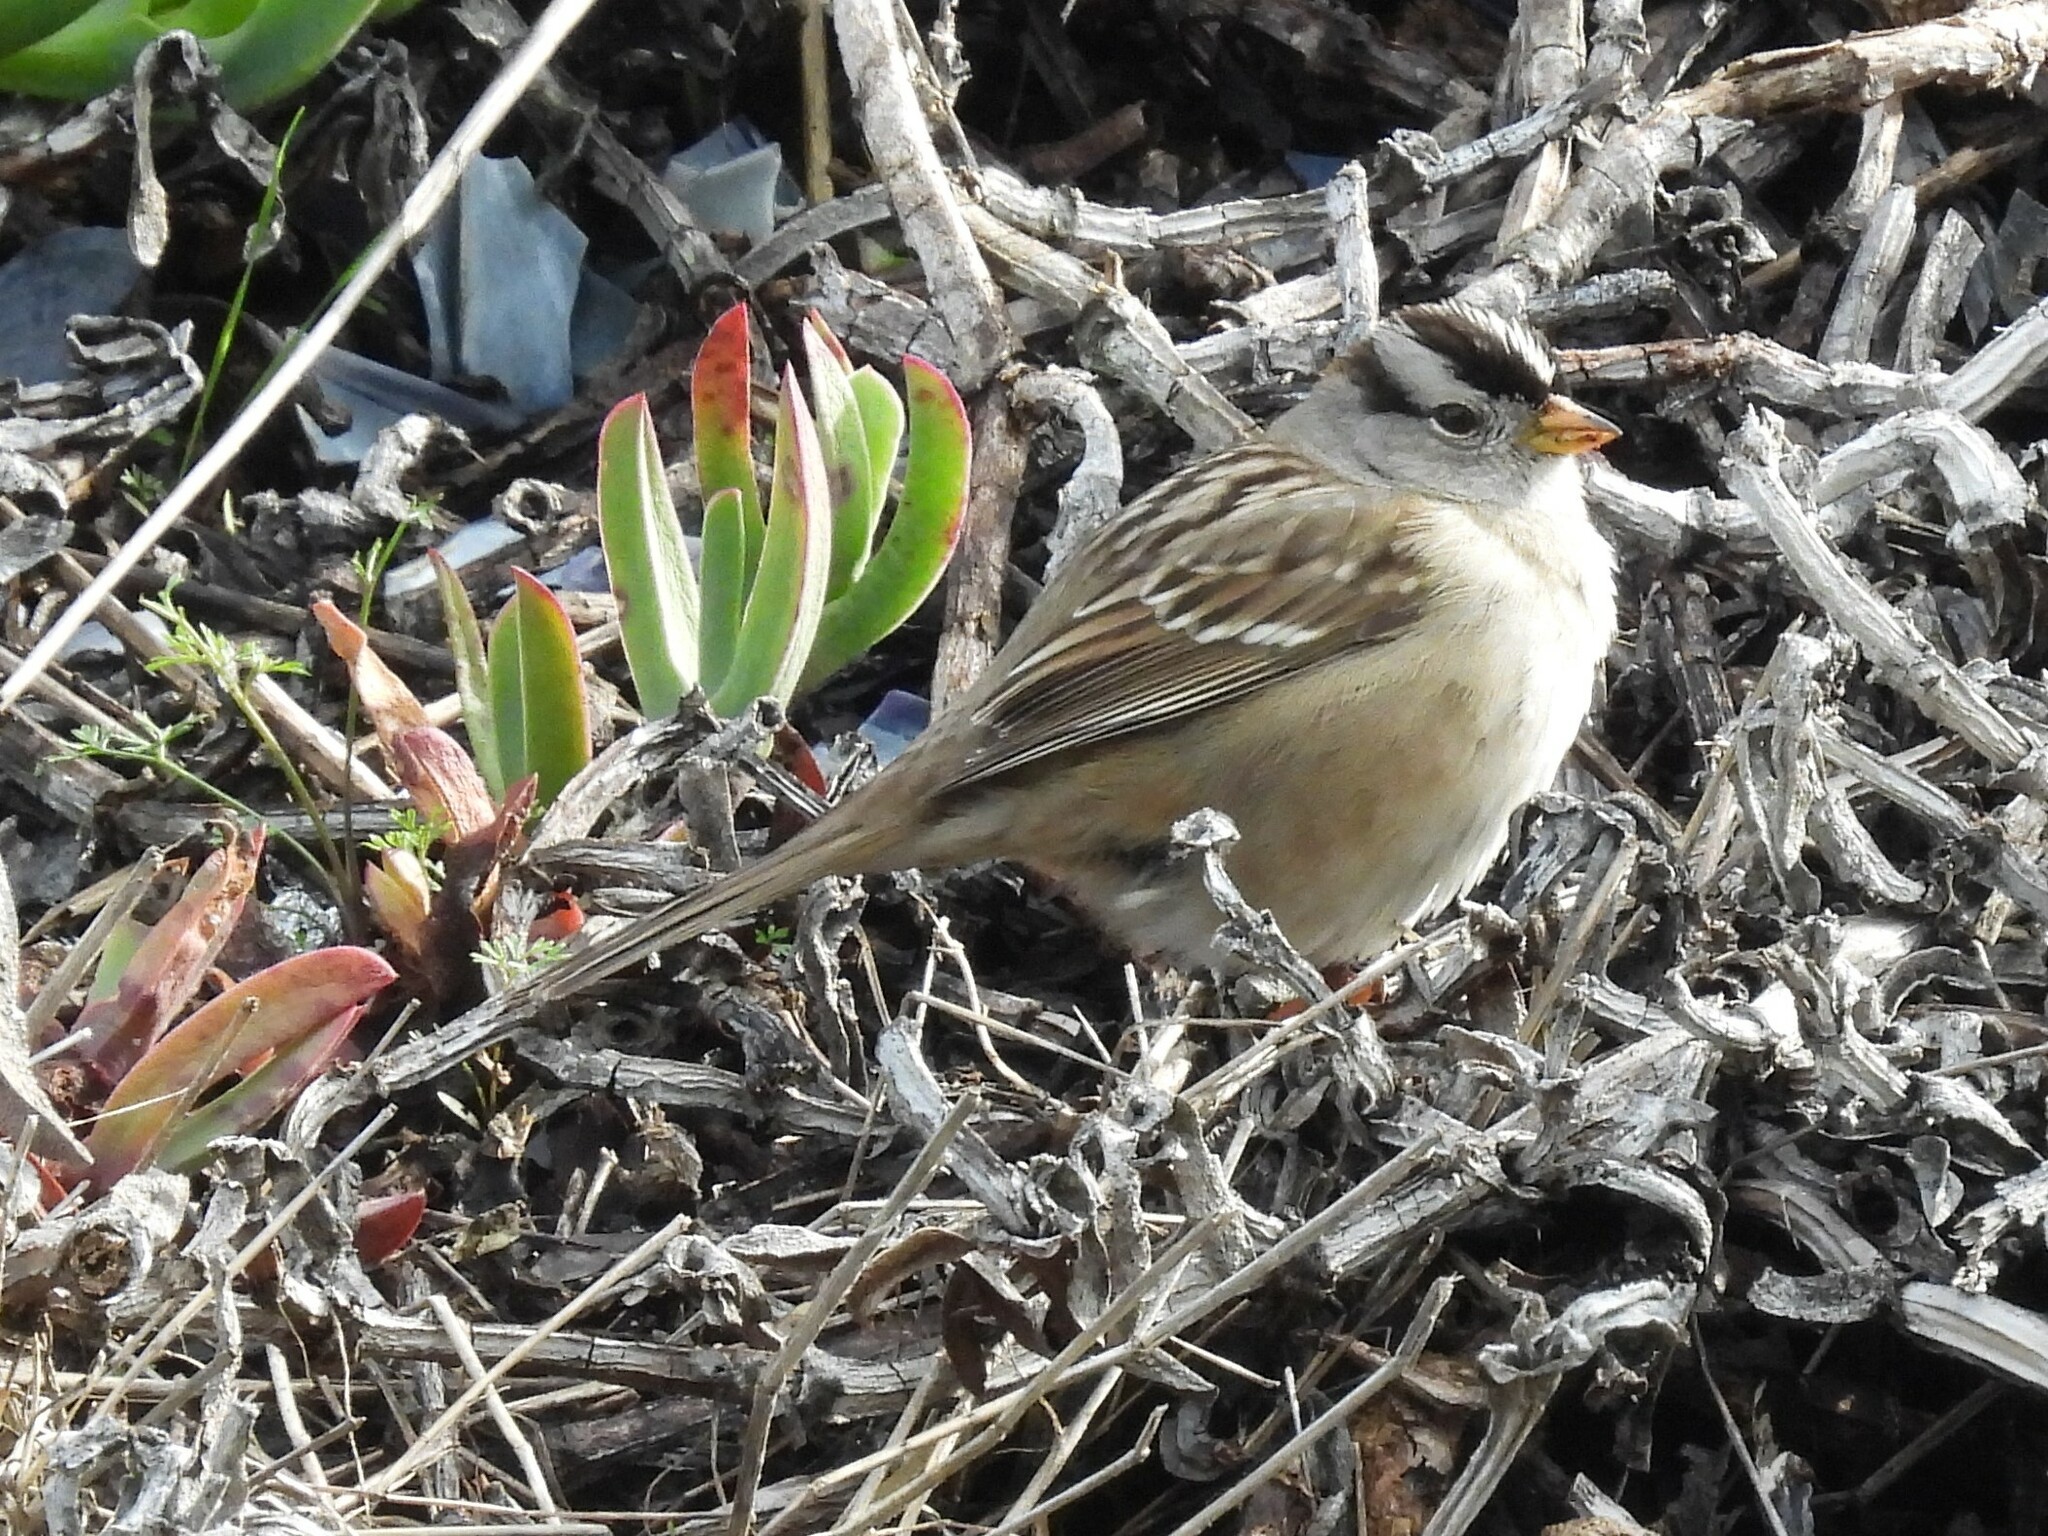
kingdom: Animalia
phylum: Chordata
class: Aves
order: Passeriformes
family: Passerellidae
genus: Zonotrichia
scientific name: Zonotrichia leucophrys
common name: White-crowned sparrow
